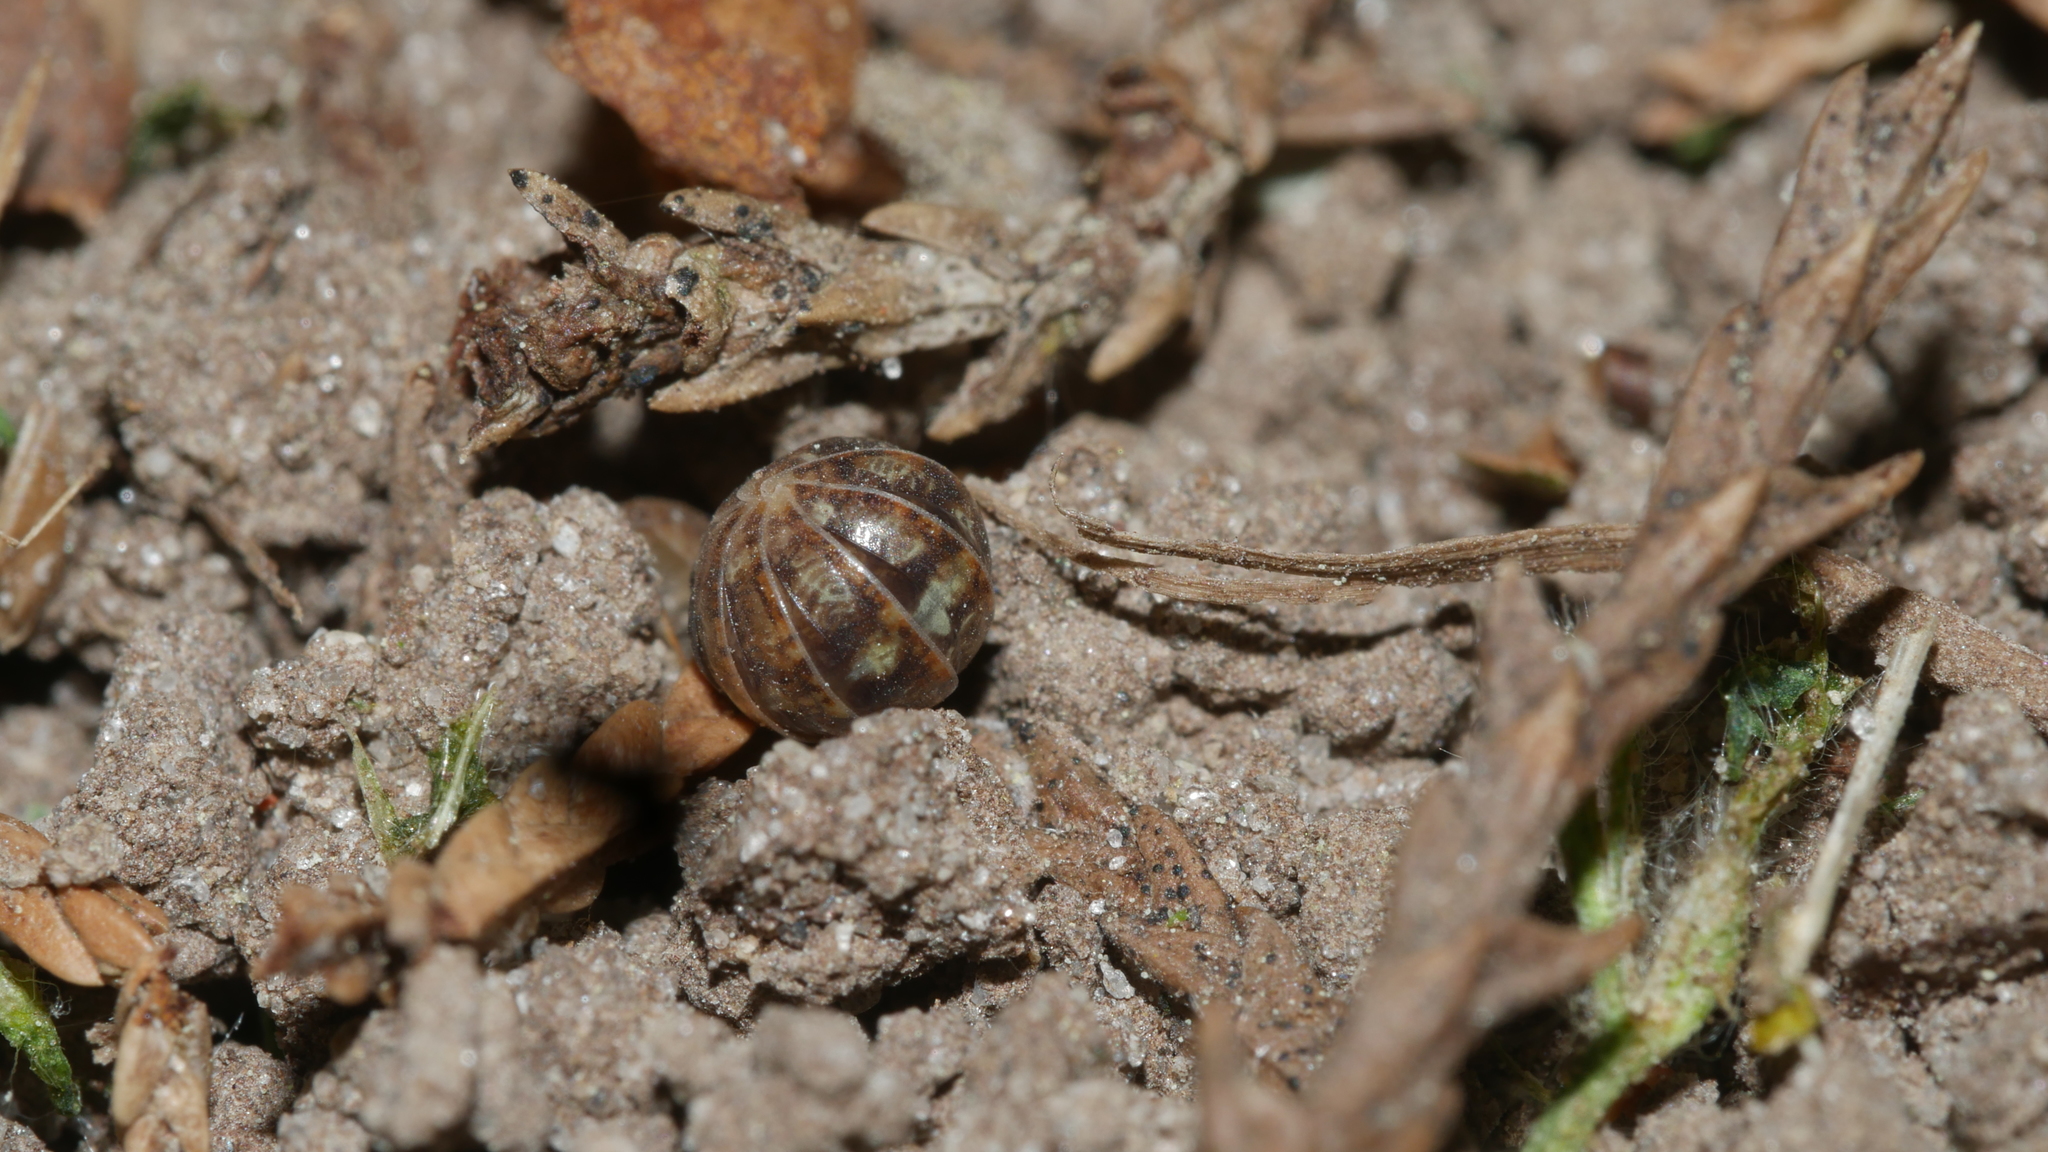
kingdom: Animalia
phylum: Arthropoda
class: Malacostraca
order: Isopoda
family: Armadillidiidae
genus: Armadillidium
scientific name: Armadillidium vulgare
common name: Common pill woodlouse
